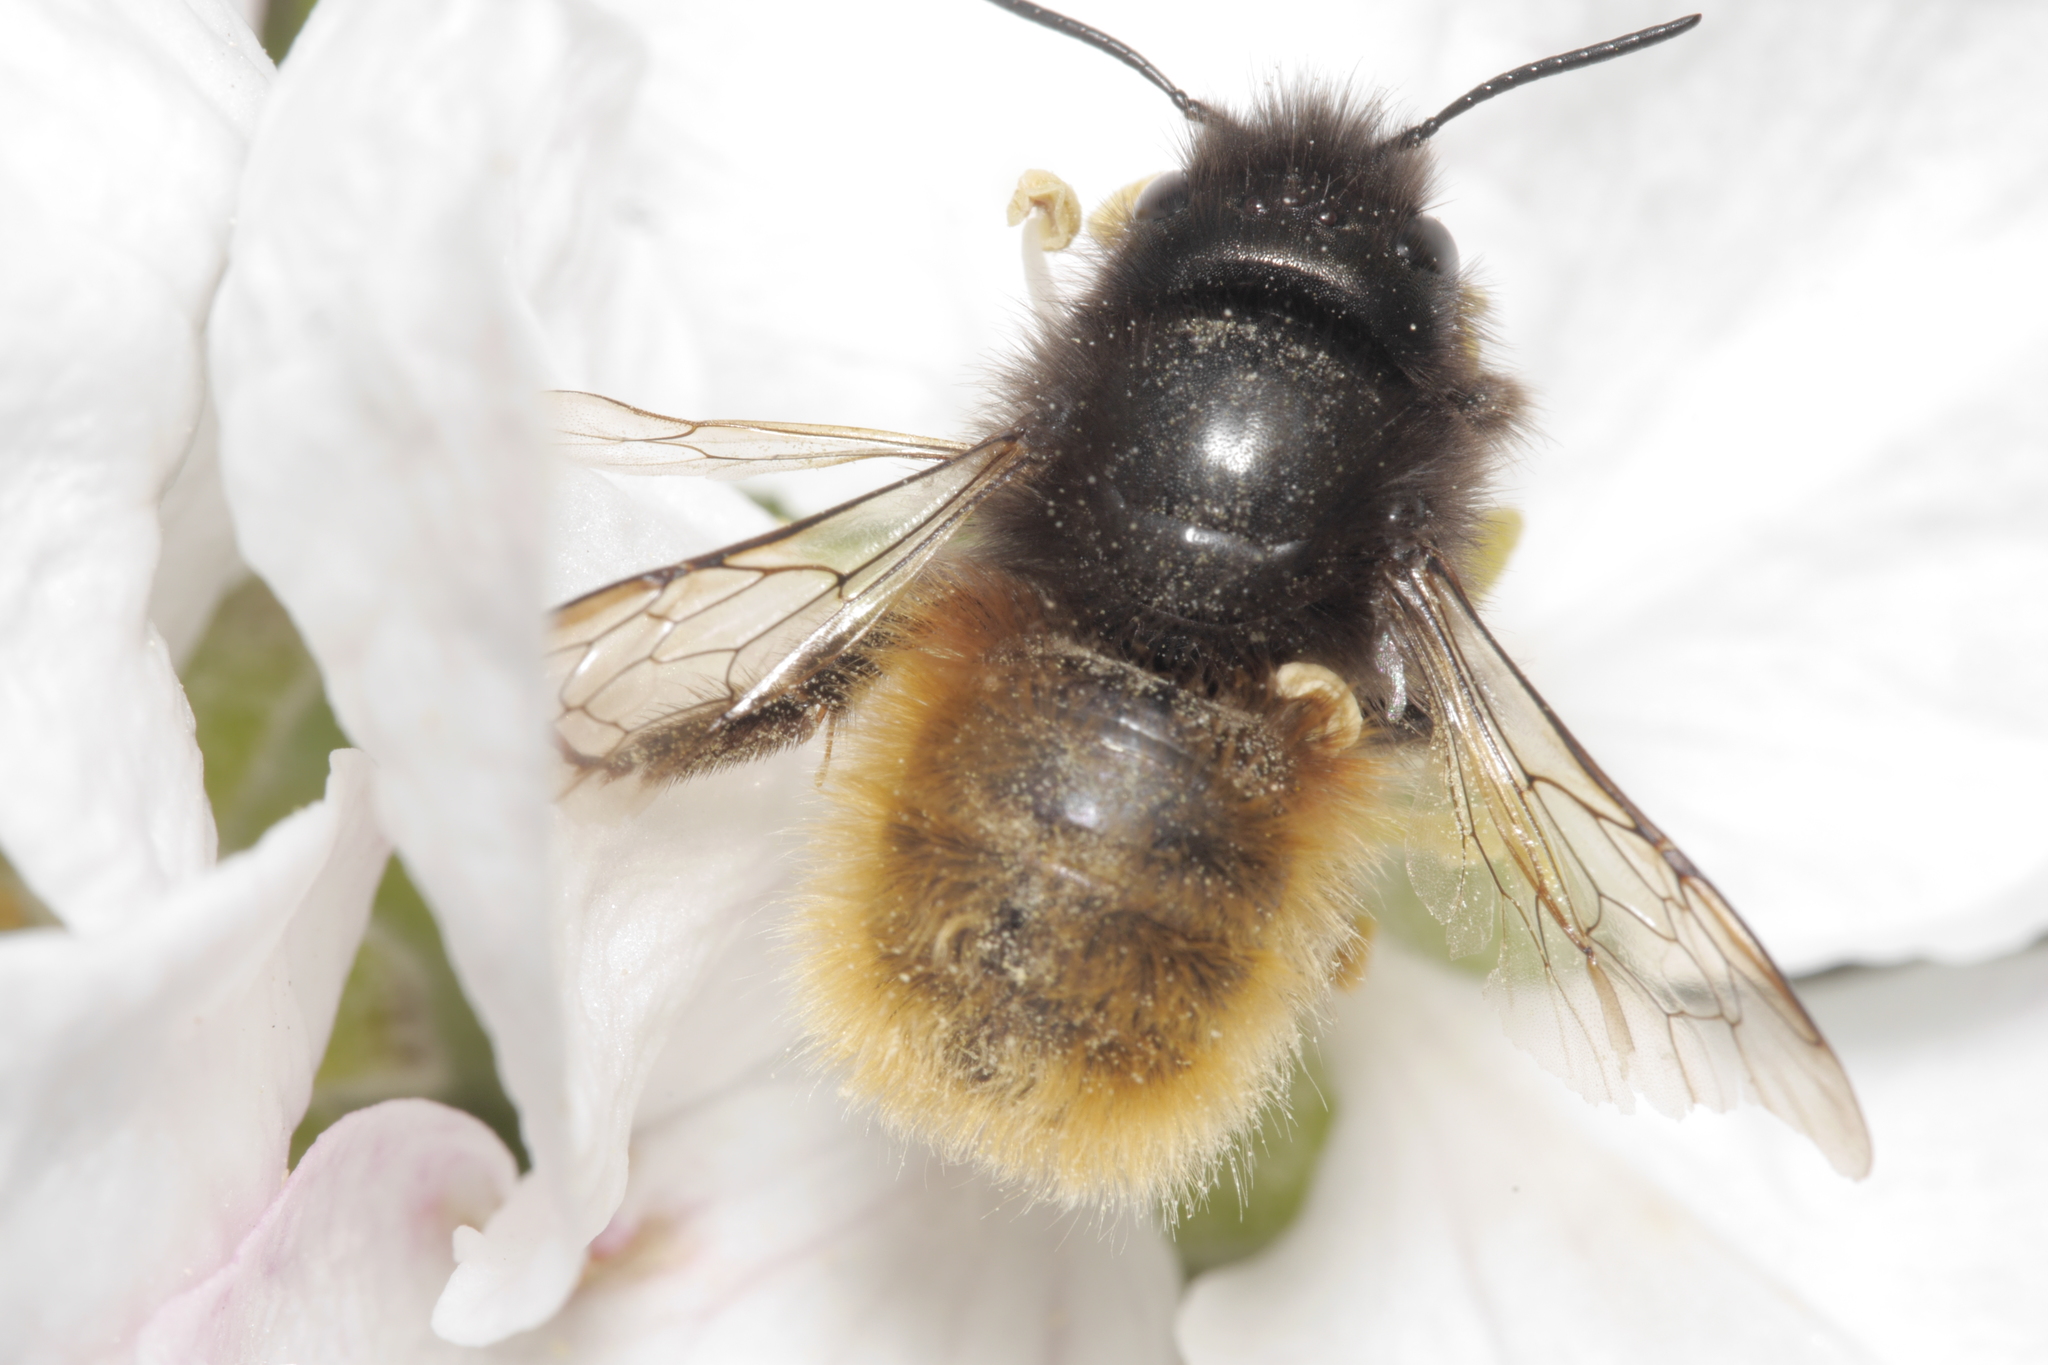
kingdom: Animalia
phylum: Arthropoda
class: Insecta
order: Hymenoptera
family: Megachilidae
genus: Osmia
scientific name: Osmia cornuta
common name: Mason bee
